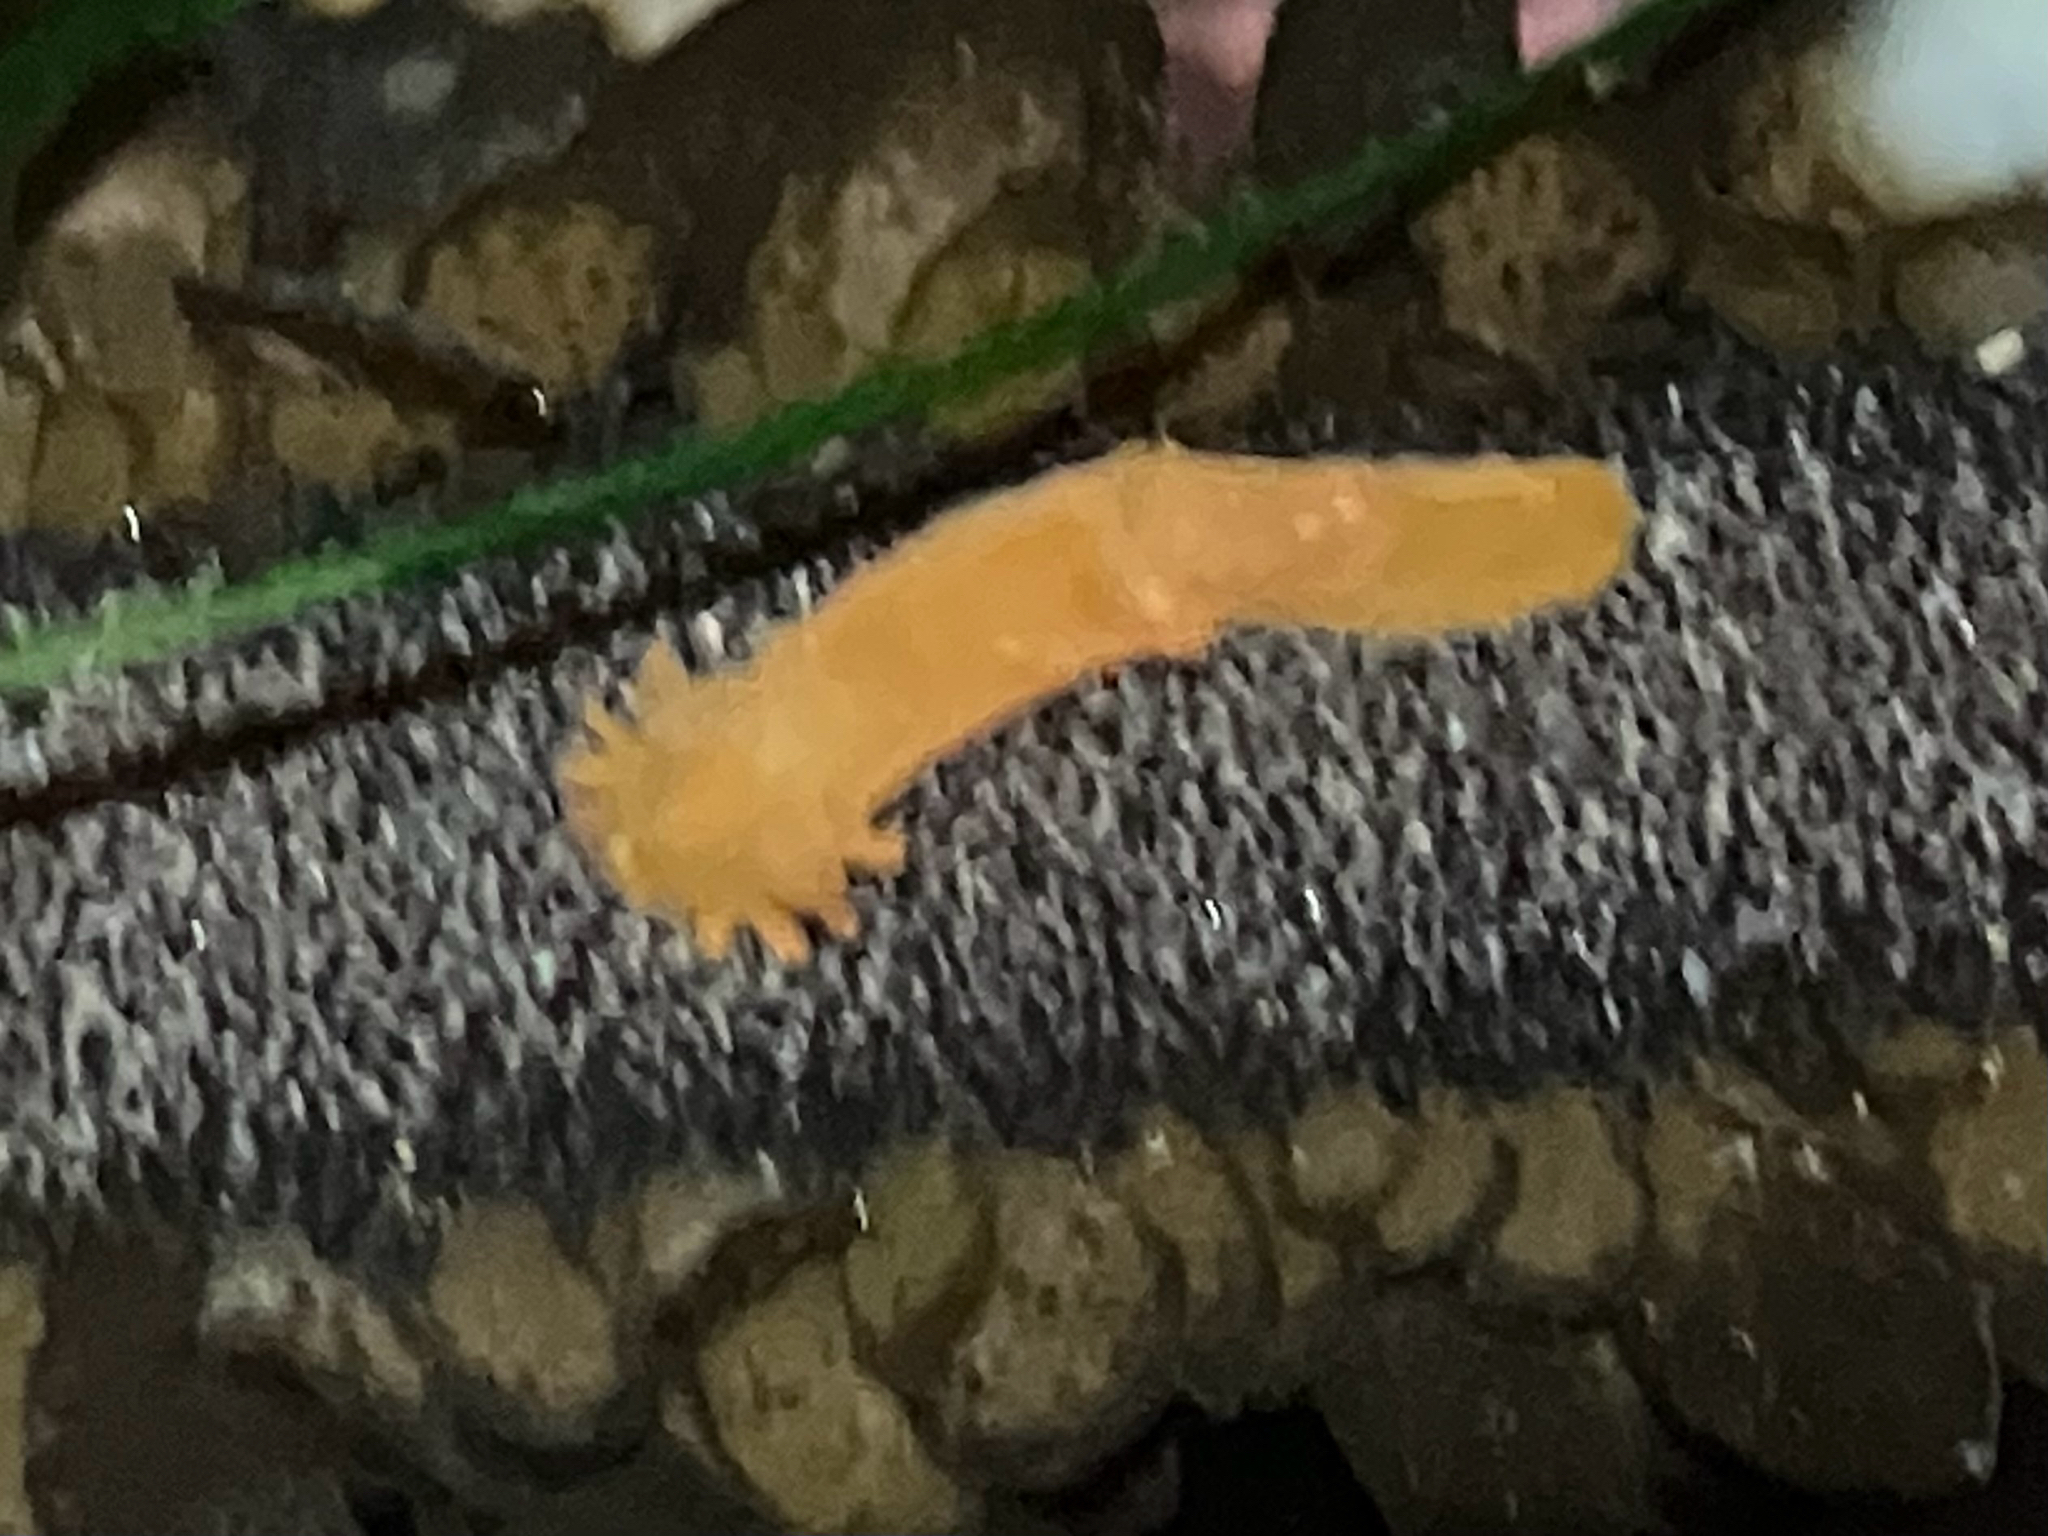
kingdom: Animalia
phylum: Mollusca
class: Gastropoda
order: Nudibranchia
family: Polyceridae
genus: Triopha
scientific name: Triopha maculata
